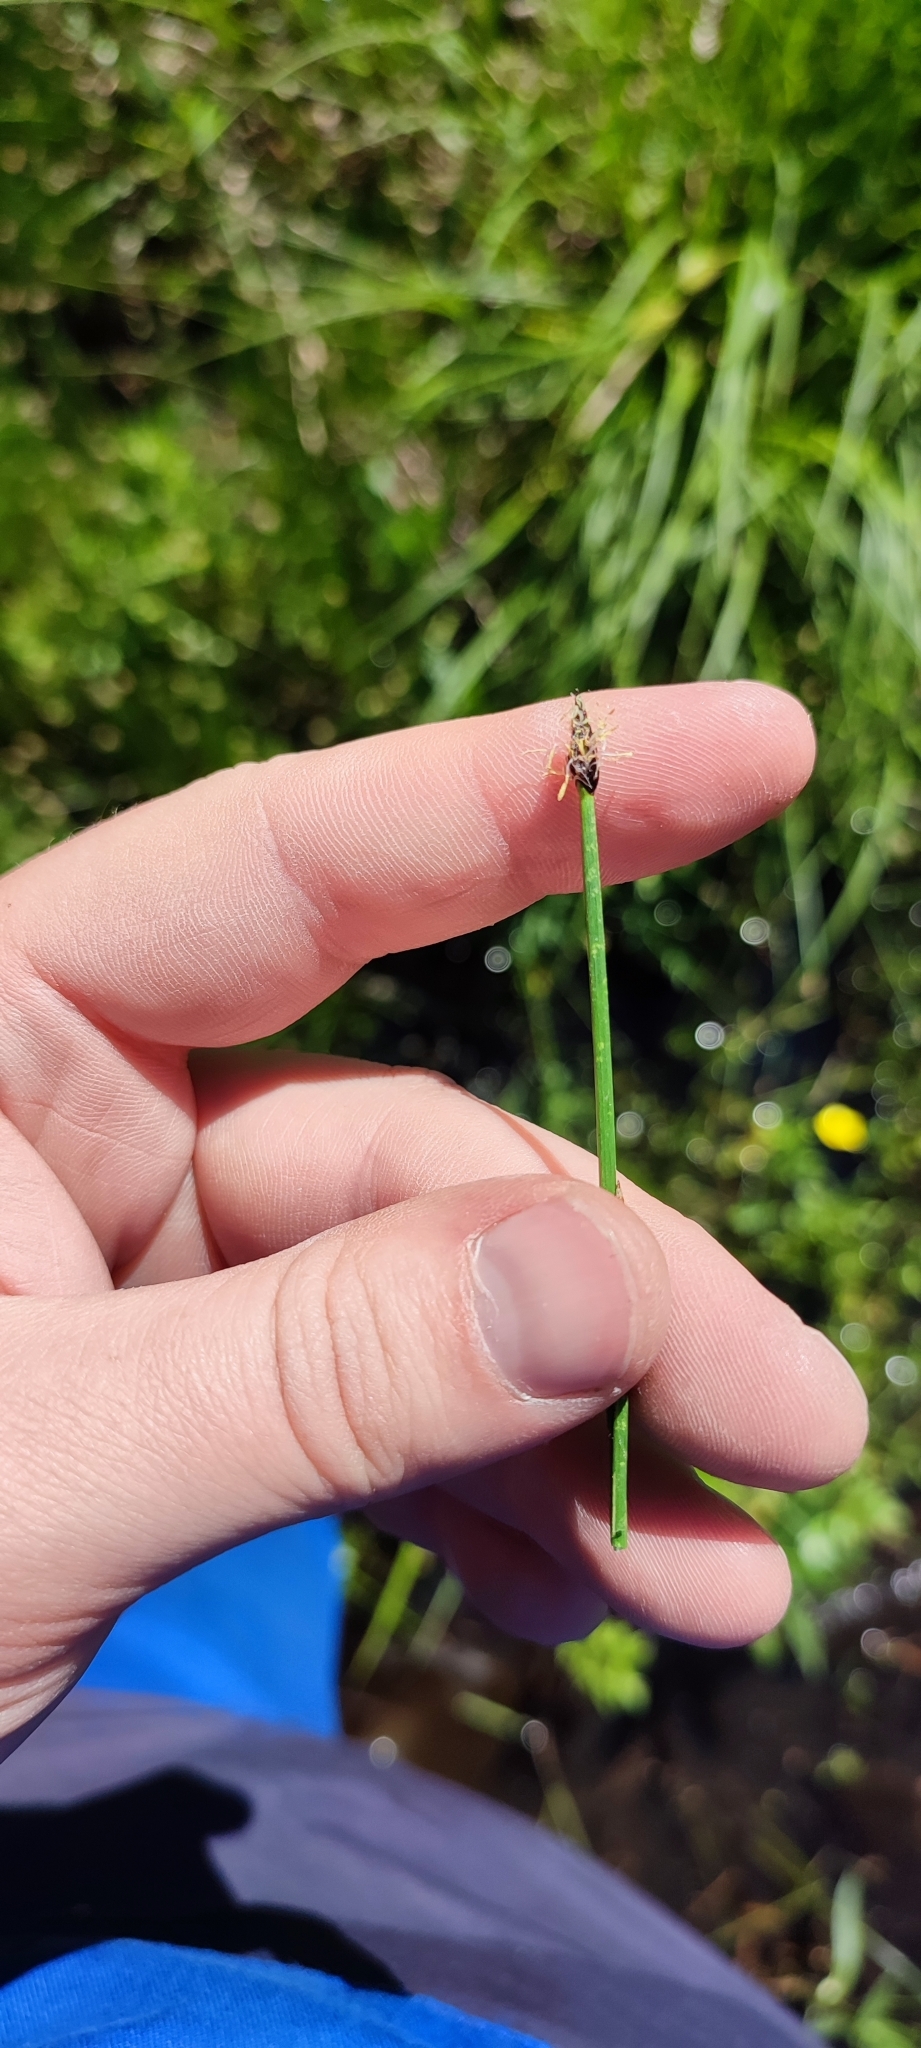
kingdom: Plantae
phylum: Tracheophyta
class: Liliopsida
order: Poales
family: Cyperaceae
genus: Eleocharis
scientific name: Eleocharis palustris
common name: Common spike-rush
